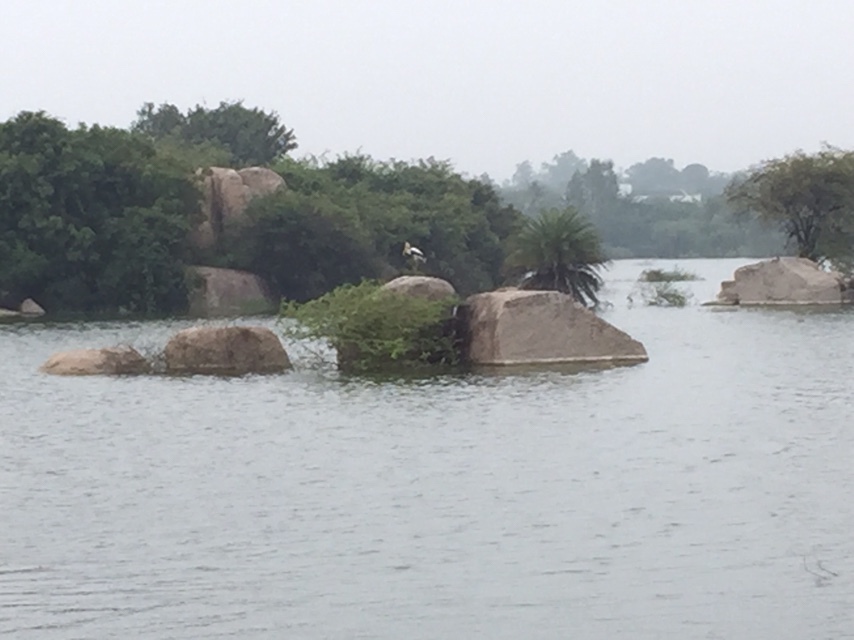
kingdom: Animalia
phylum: Chordata
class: Aves
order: Ciconiiformes
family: Ciconiidae
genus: Mycteria
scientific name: Mycteria leucocephala
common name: Painted stork
